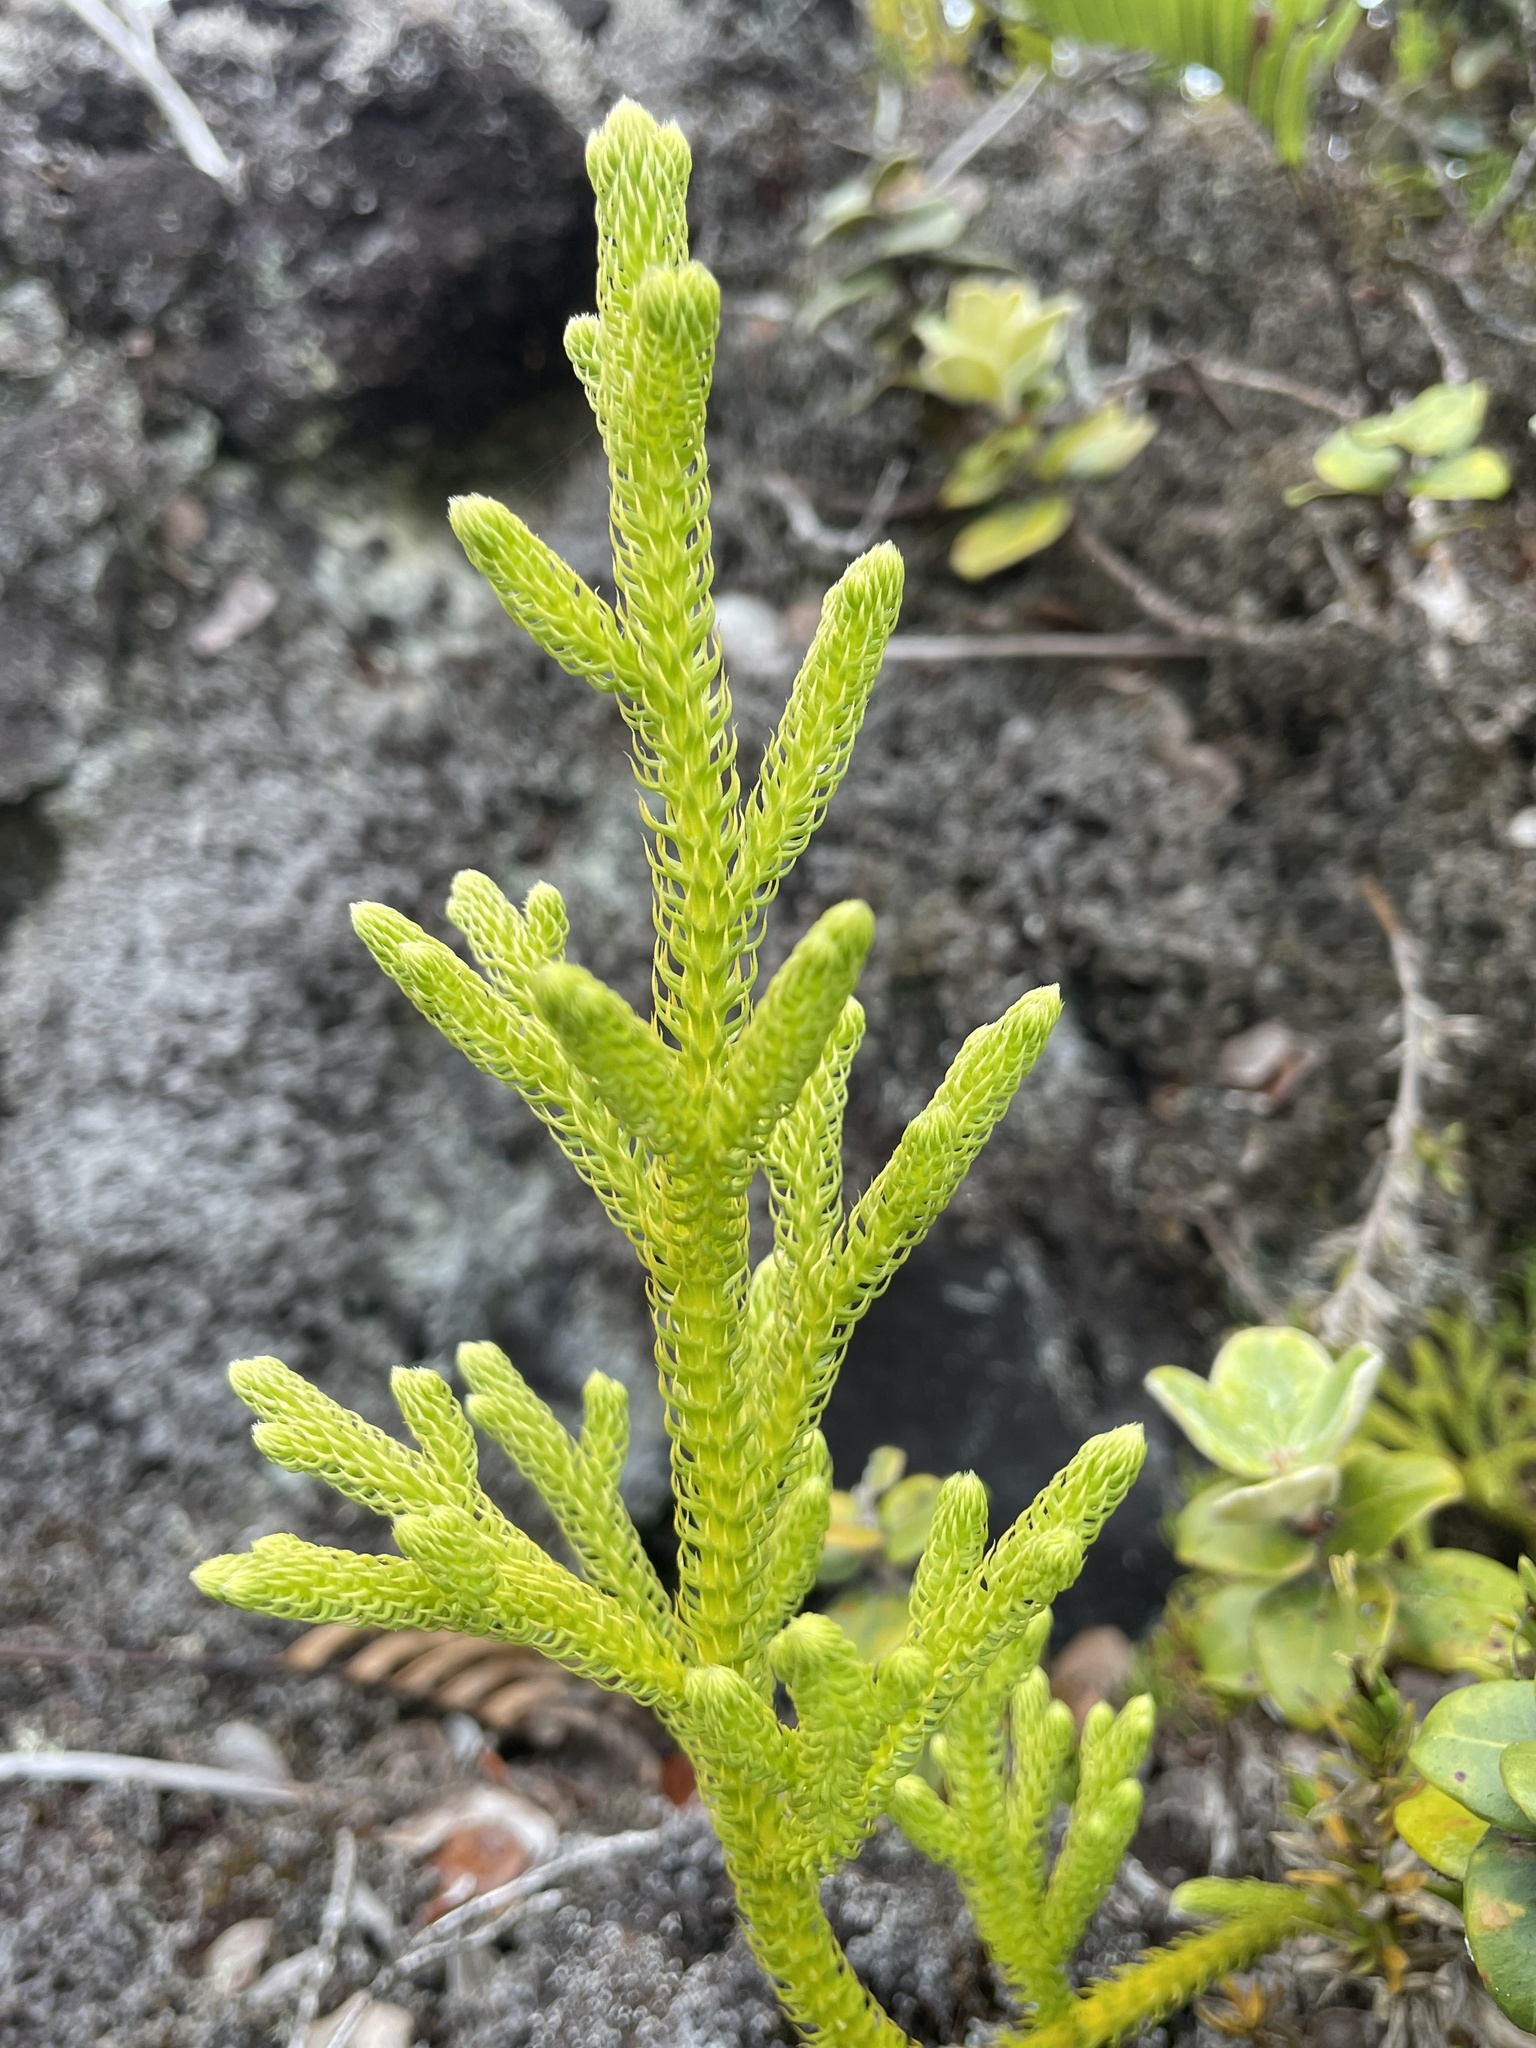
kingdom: Plantae
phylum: Tracheophyta
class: Lycopodiopsida
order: Lycopodiales
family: Lycopodiaceae
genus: Palhinhaea
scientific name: Palhinhaea cernua
